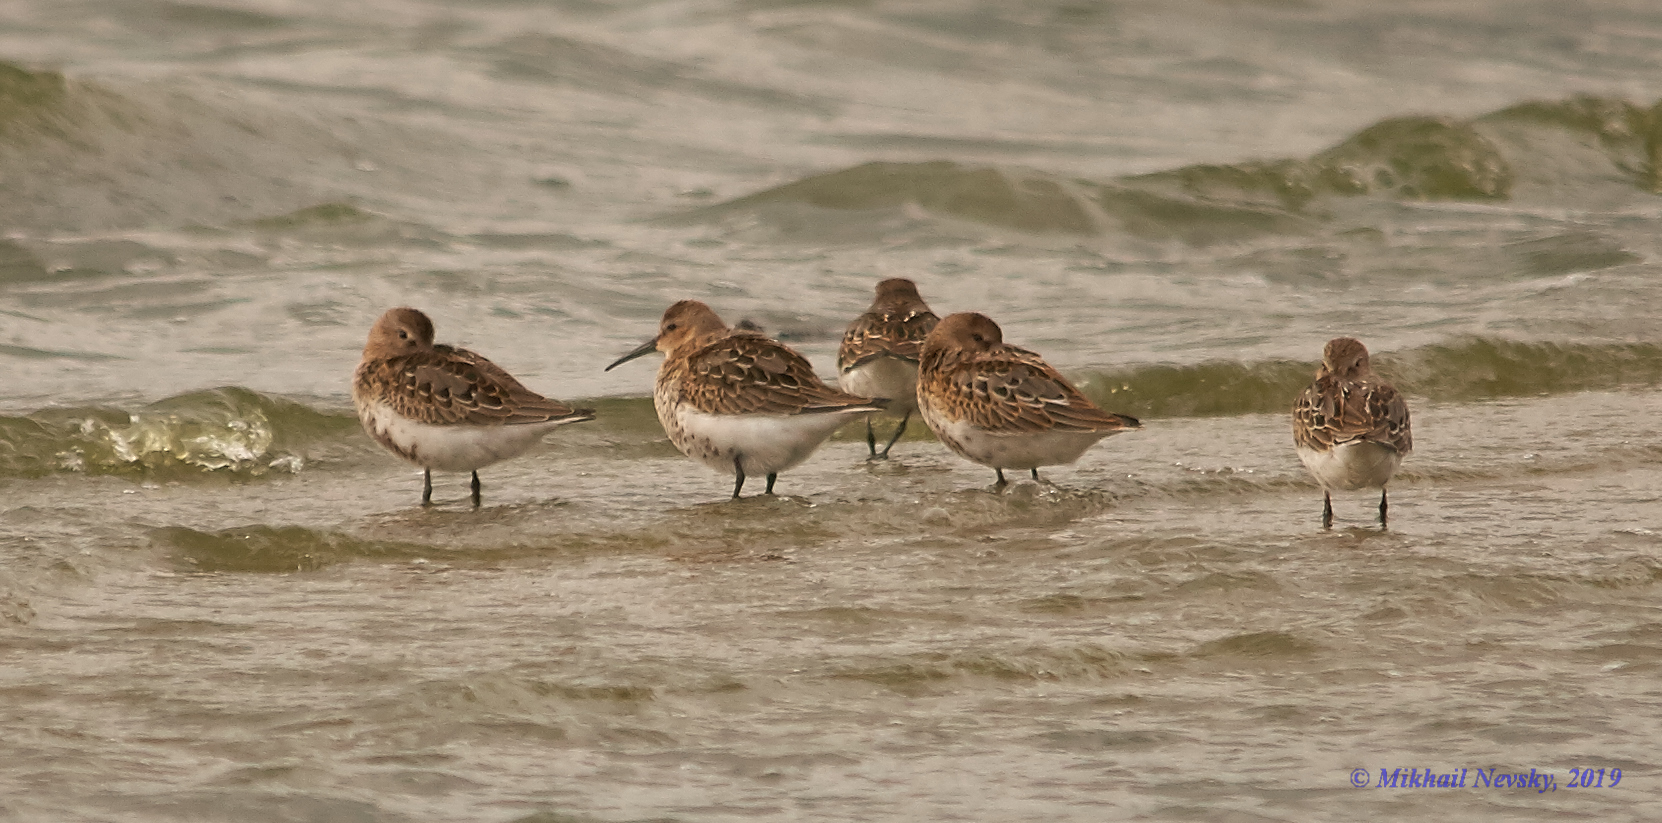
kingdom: Animalia
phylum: Chordata
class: Aves
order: Charadriiformes
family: Scolopacidae
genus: Calidris
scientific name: Calidris alpina
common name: Dunlin
